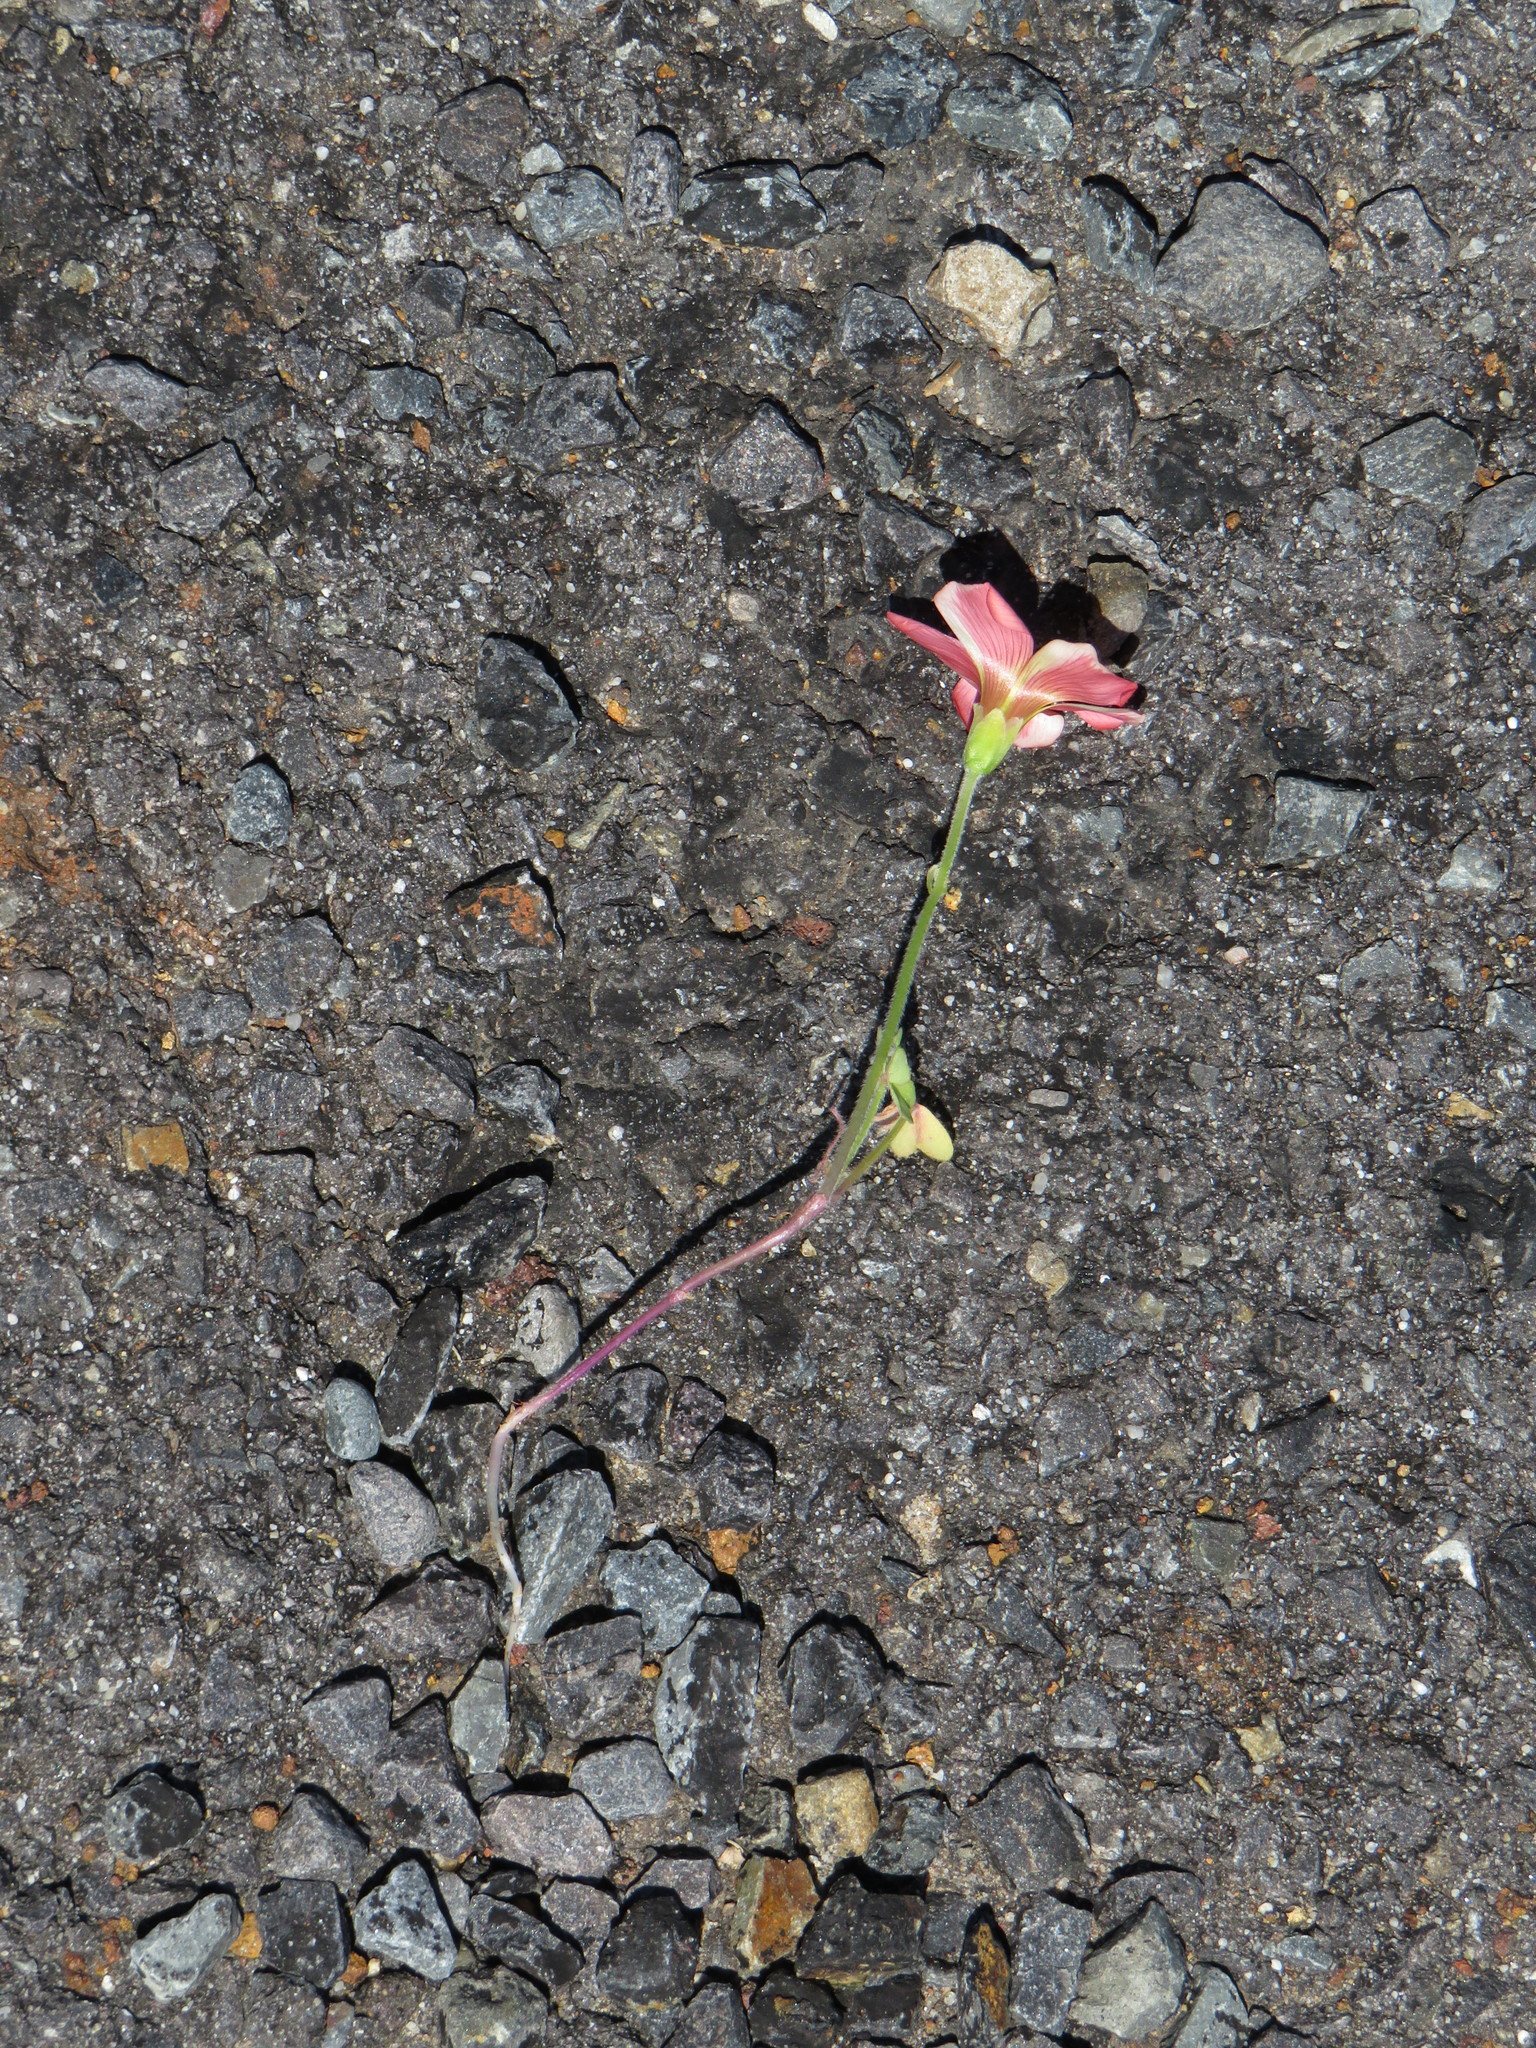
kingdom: Plantae
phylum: Tracheophyta
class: Magnoliopsida
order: Oxalidales
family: Oxalidaceae
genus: Oxalis
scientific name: Oxalis obtusa
